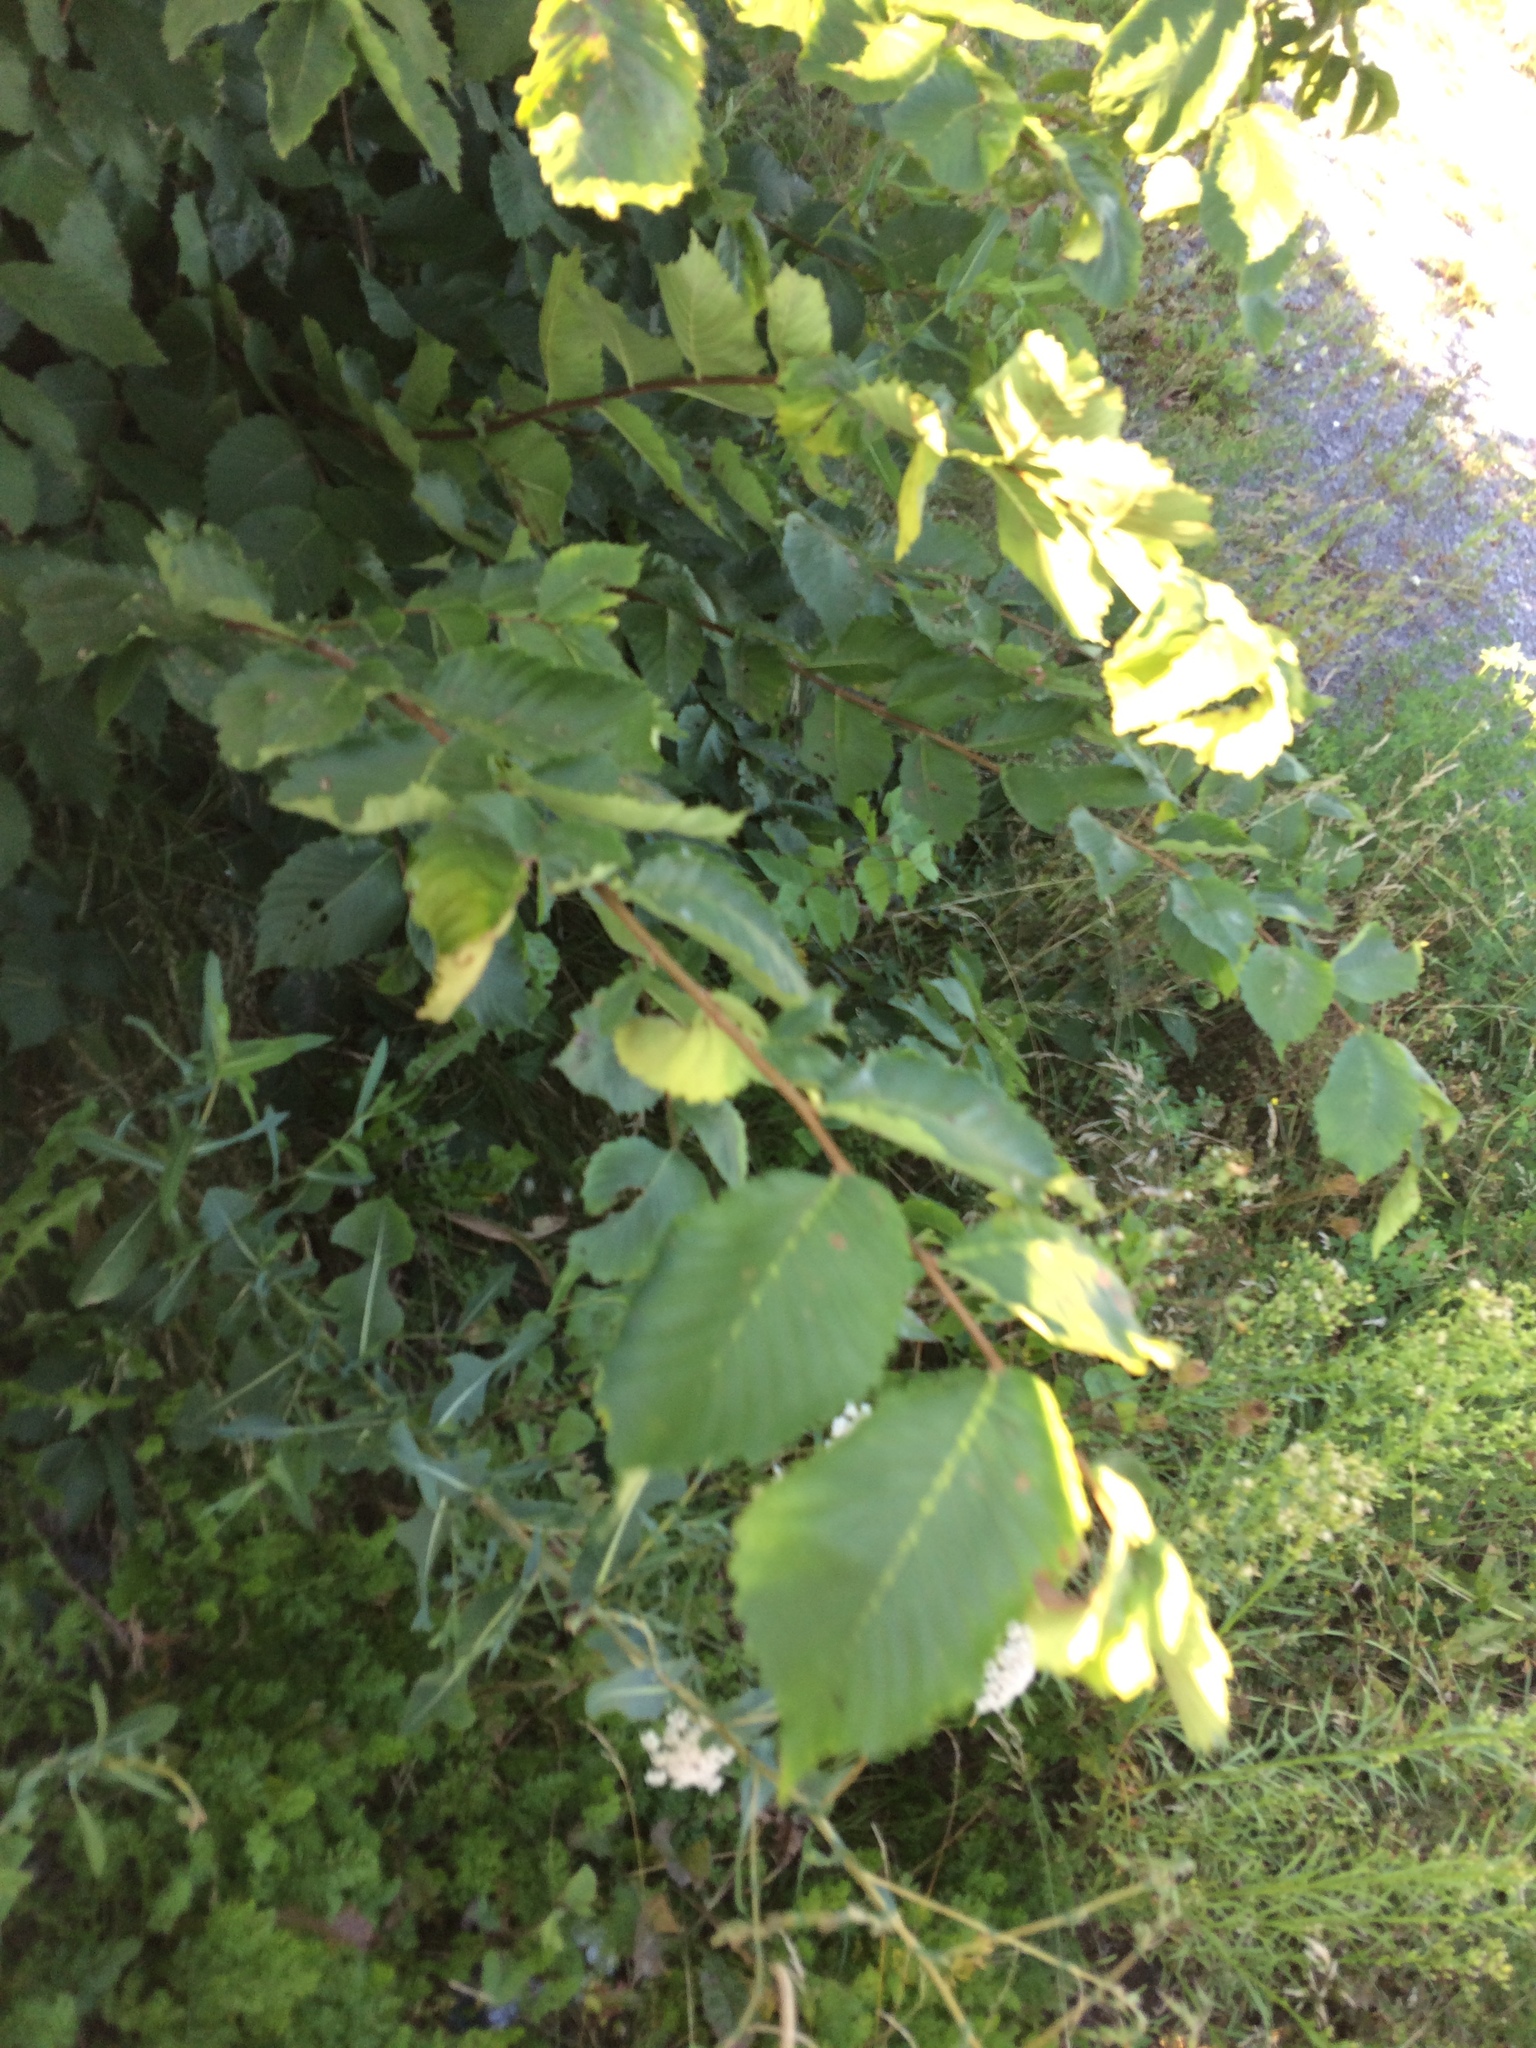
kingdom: Plantae
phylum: Tracheophyta
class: Magnoliopsida
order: Rosales
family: Ulmaceae
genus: Ulmus
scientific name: Ulmus americana
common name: American elm
